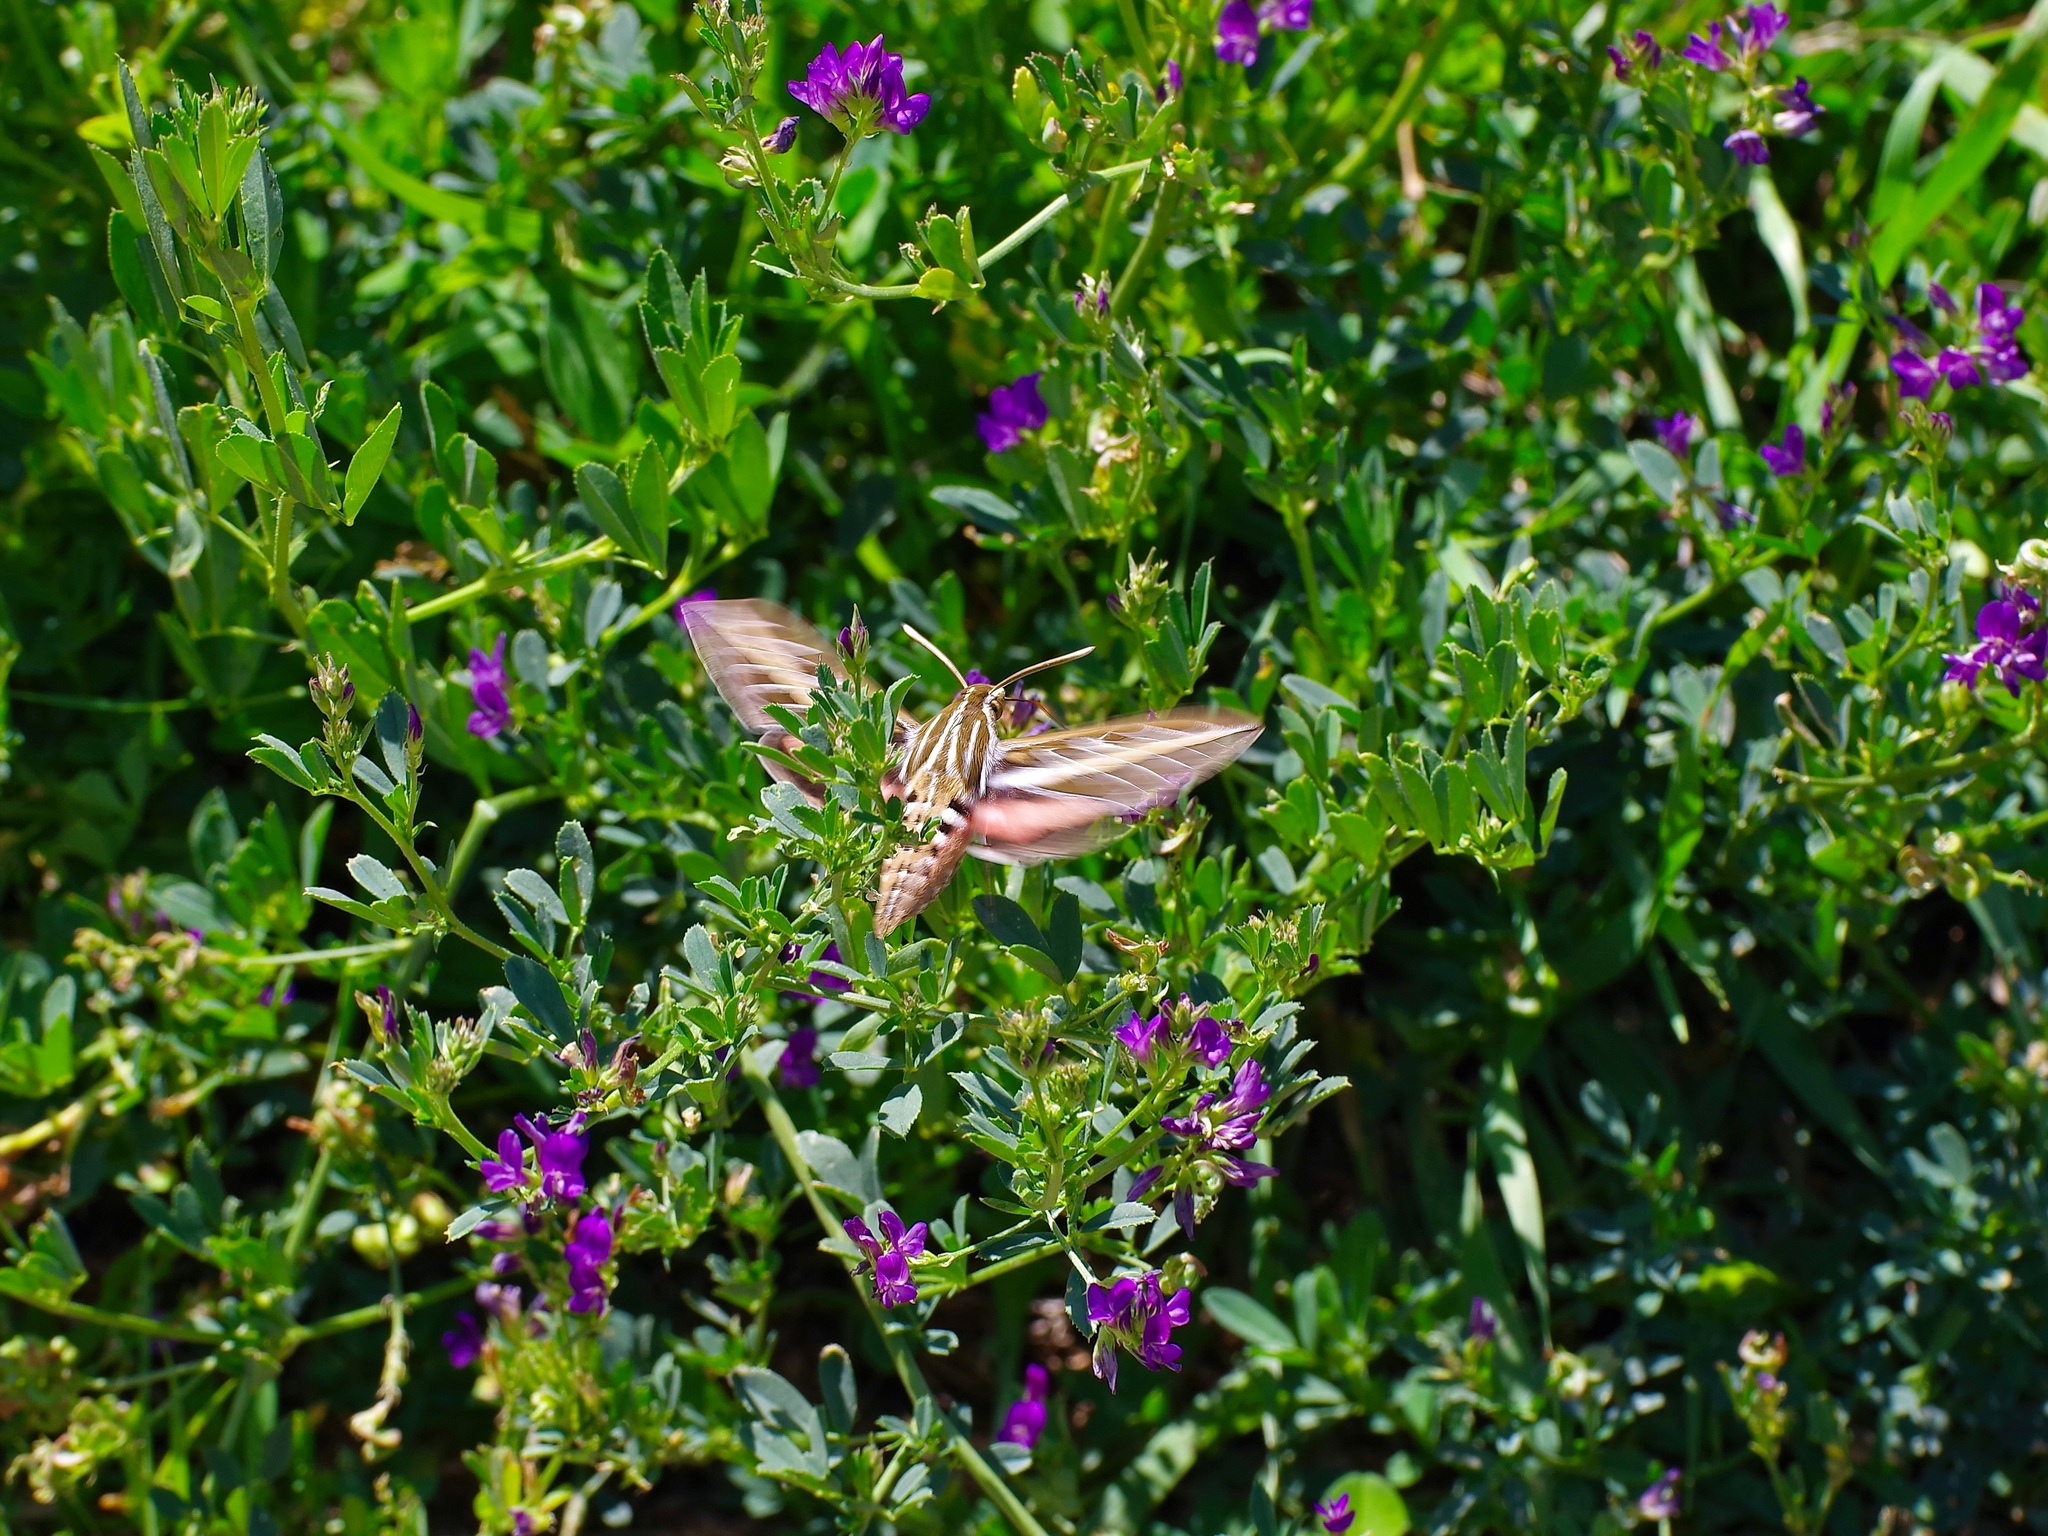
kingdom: Animalia
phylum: Arthropoda
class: Insecta
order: Lepidoptera
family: Sphingidae
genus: Hyles
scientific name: Hyles lineata
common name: White-lined sphinx
